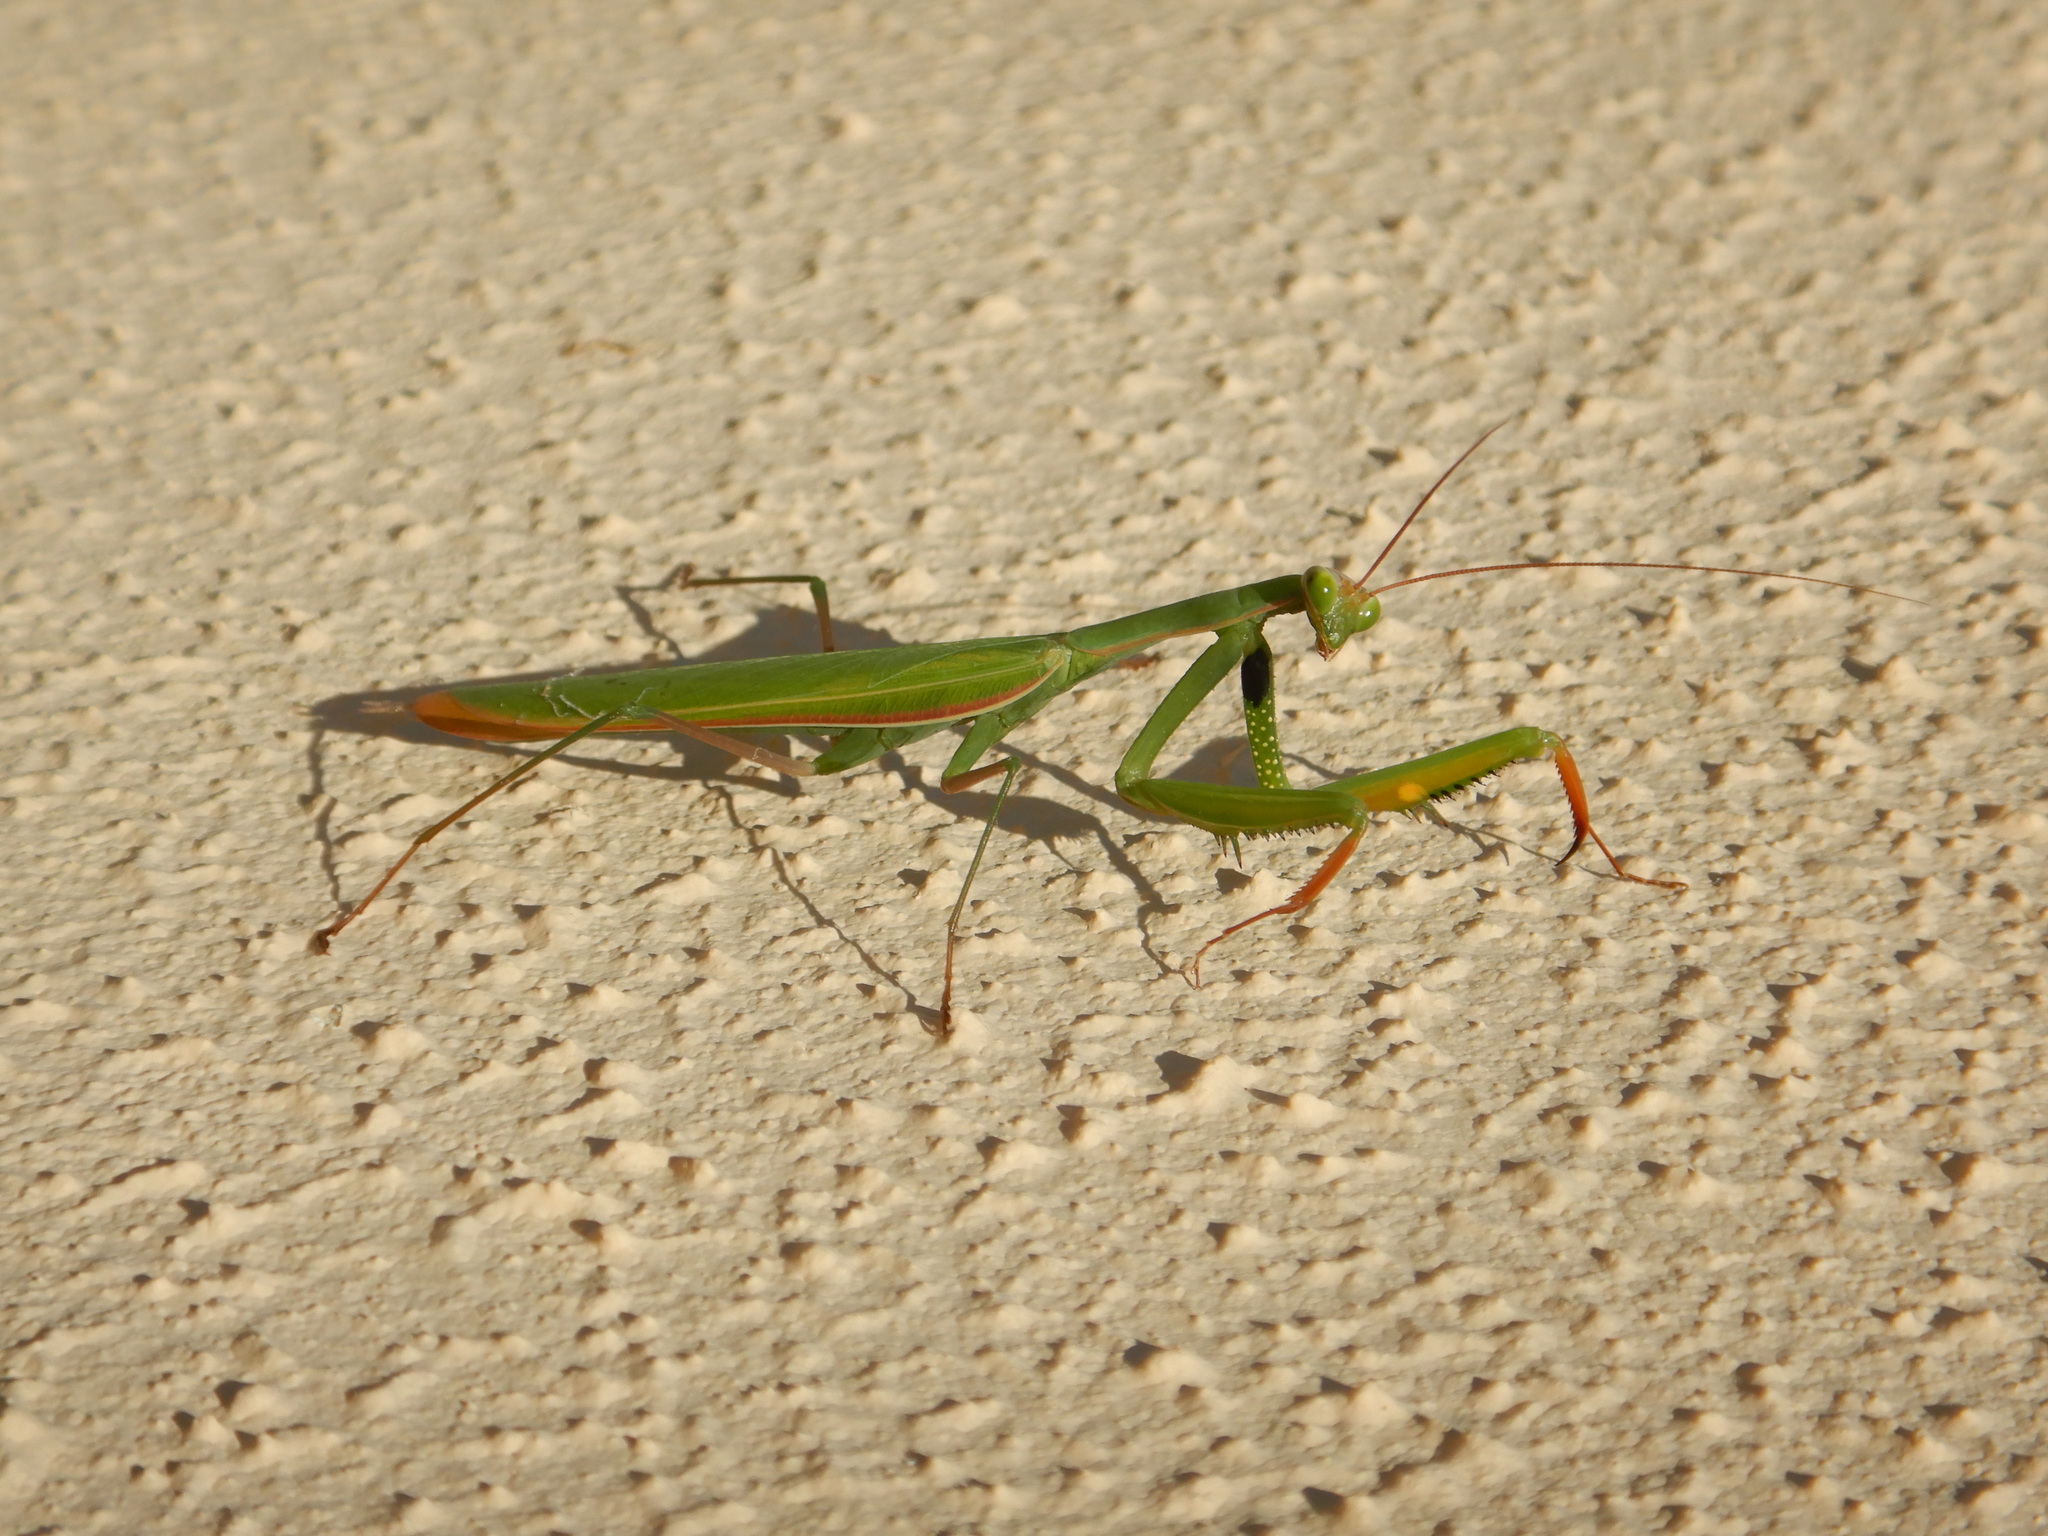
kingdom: Animalia
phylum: Arthropoda
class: Insecta
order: Mantodea
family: Mantidae
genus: Mantis
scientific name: Mantis religiosa
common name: Praying mantis
